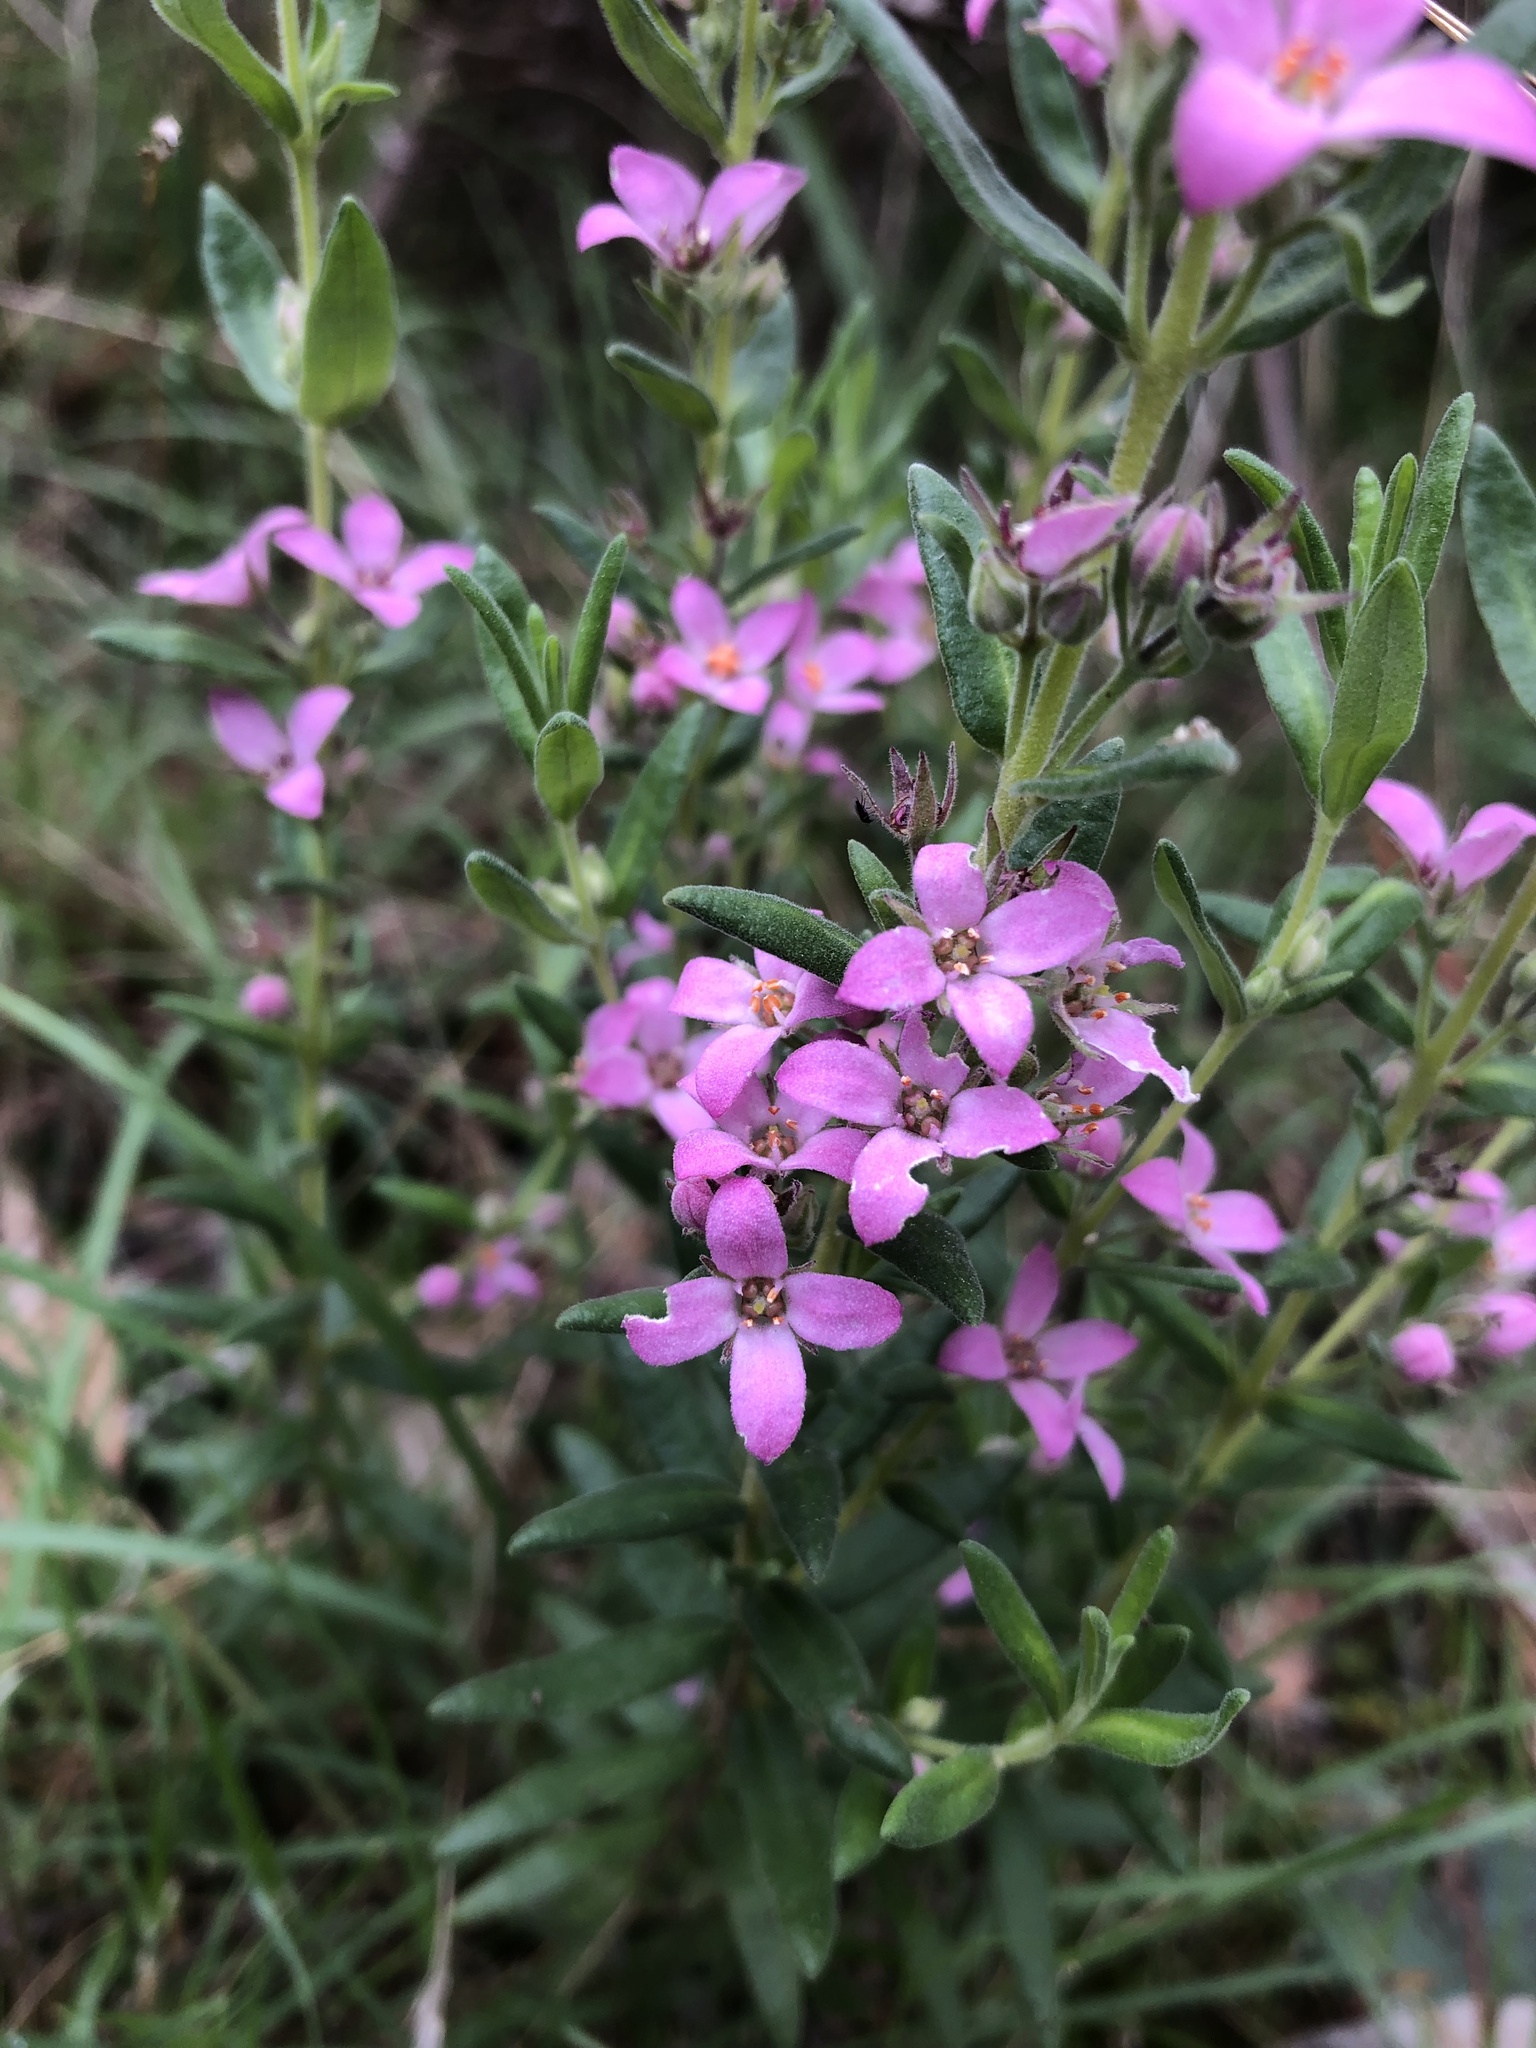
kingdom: Plantae
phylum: Tracheophyta
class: Magnoliopsida
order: Sapindales
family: Rutaceae
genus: Zieria
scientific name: Zieria veronicea
